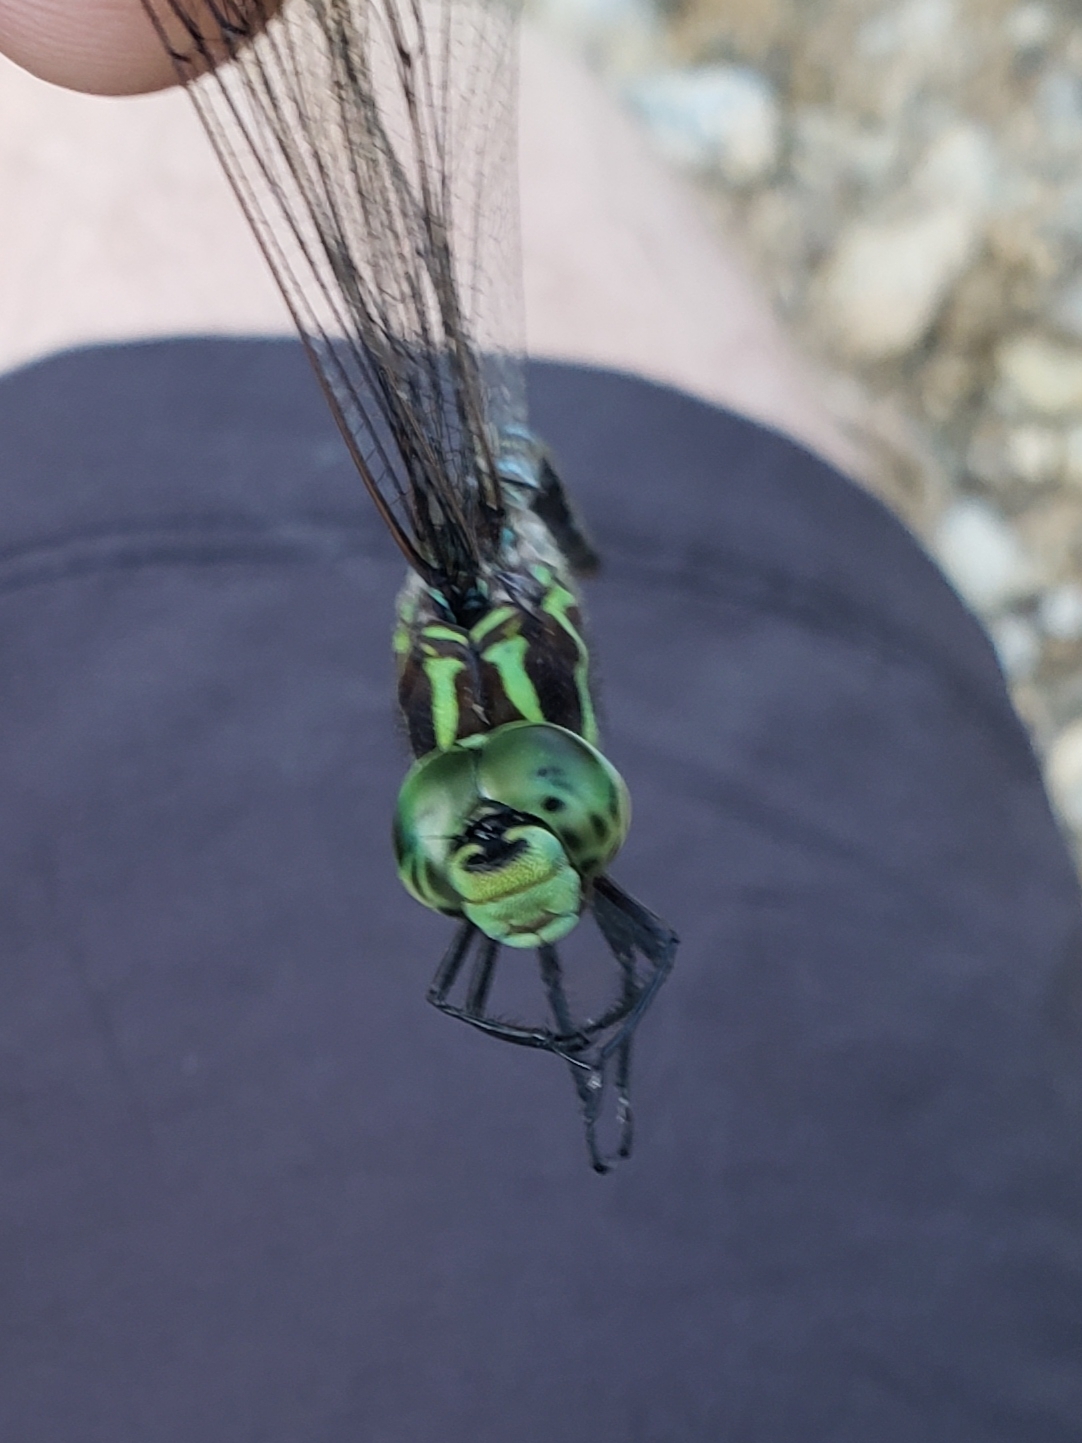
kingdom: Animalia
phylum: Arthropoda
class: Insecta
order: Odonata
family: Aeshnidae
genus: Aeshna
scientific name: Aeshna verticalis
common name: Green-striped darner
